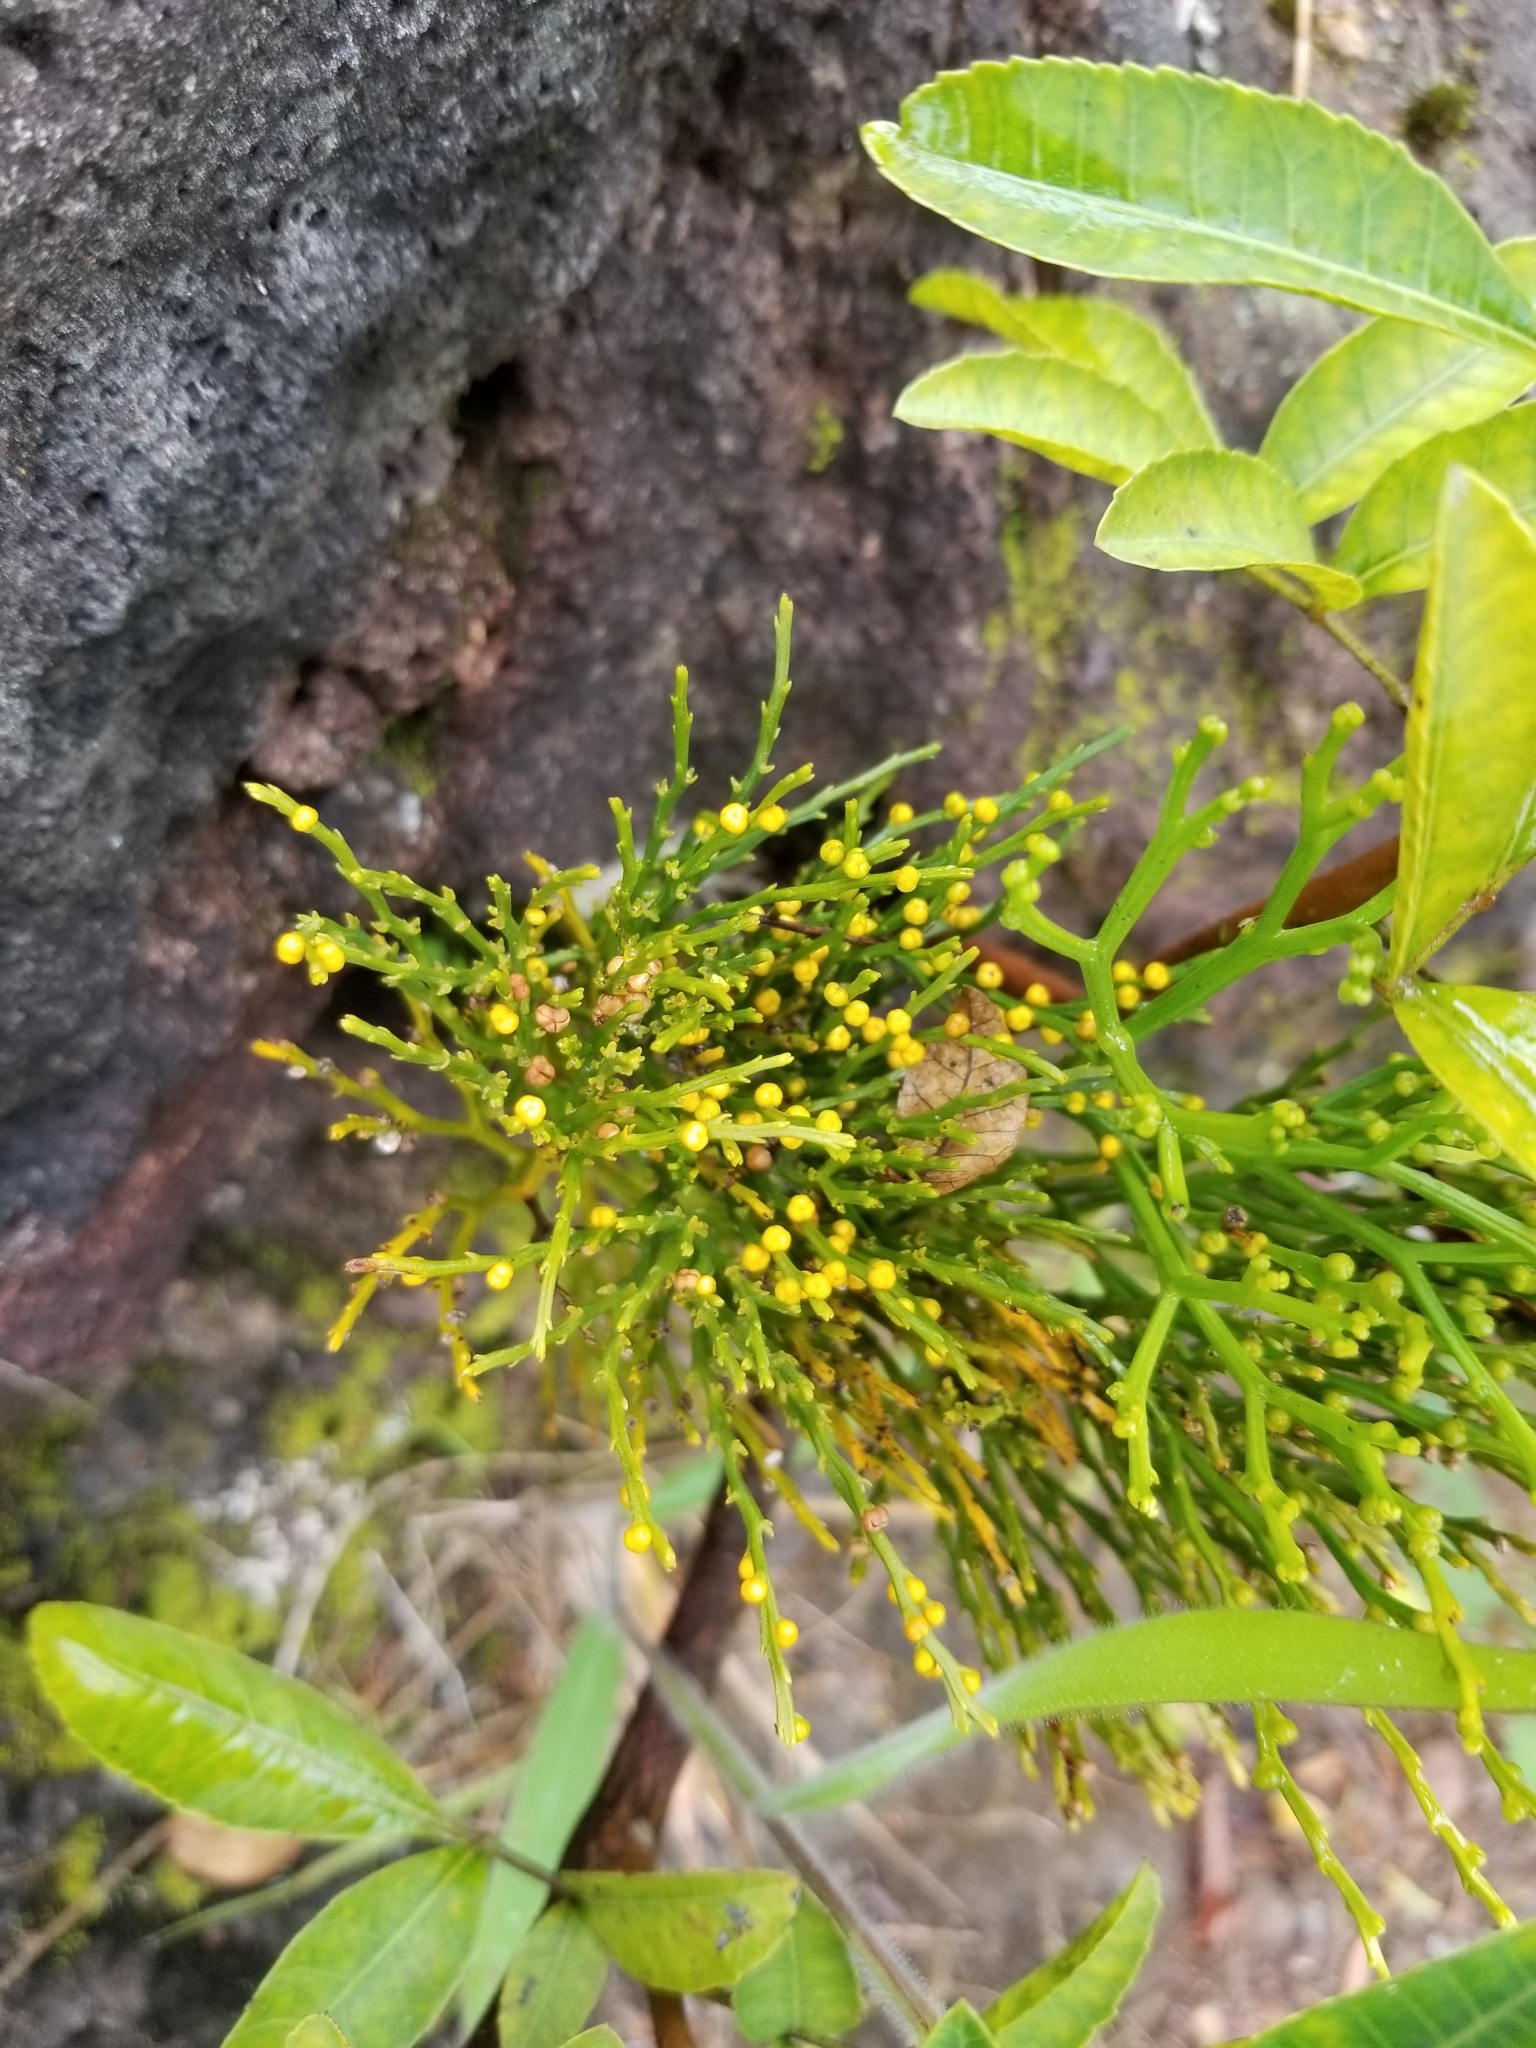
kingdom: Plantae
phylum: Tracheophyta
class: Polypodiopsida
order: Psilotales
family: Psilotaceae
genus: Psilotum
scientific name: Psilotum nudum
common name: Skeleton fork fern
